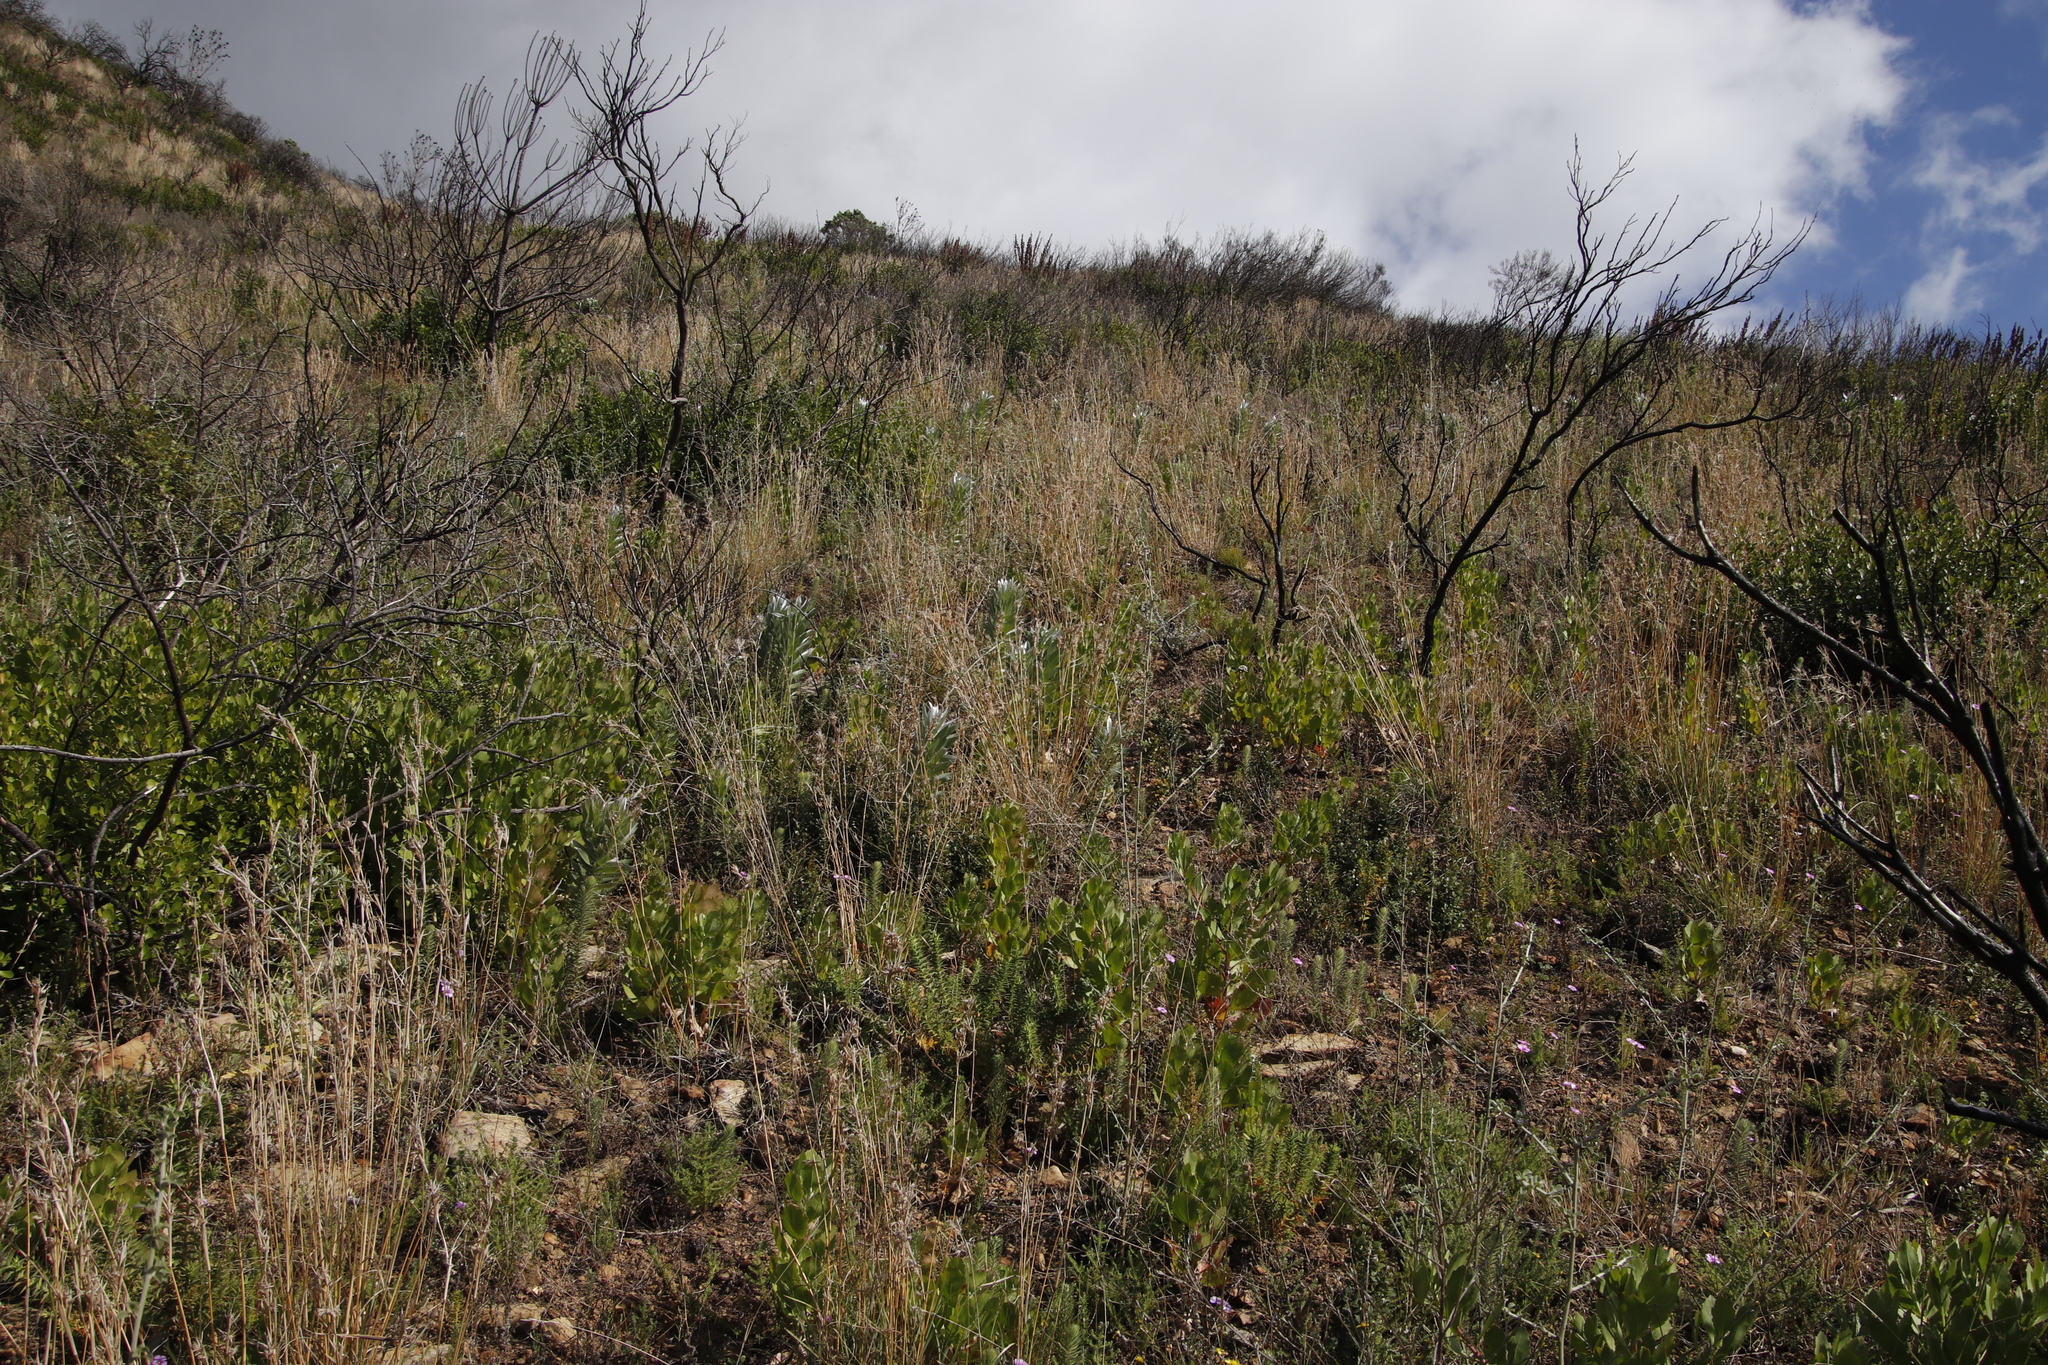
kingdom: Plantae
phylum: Tracheophyta
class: Magnoliopsida
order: Proteales
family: Proteaceae
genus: Leucadendron
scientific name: Leucadendron argenteum
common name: Cape silver tree
